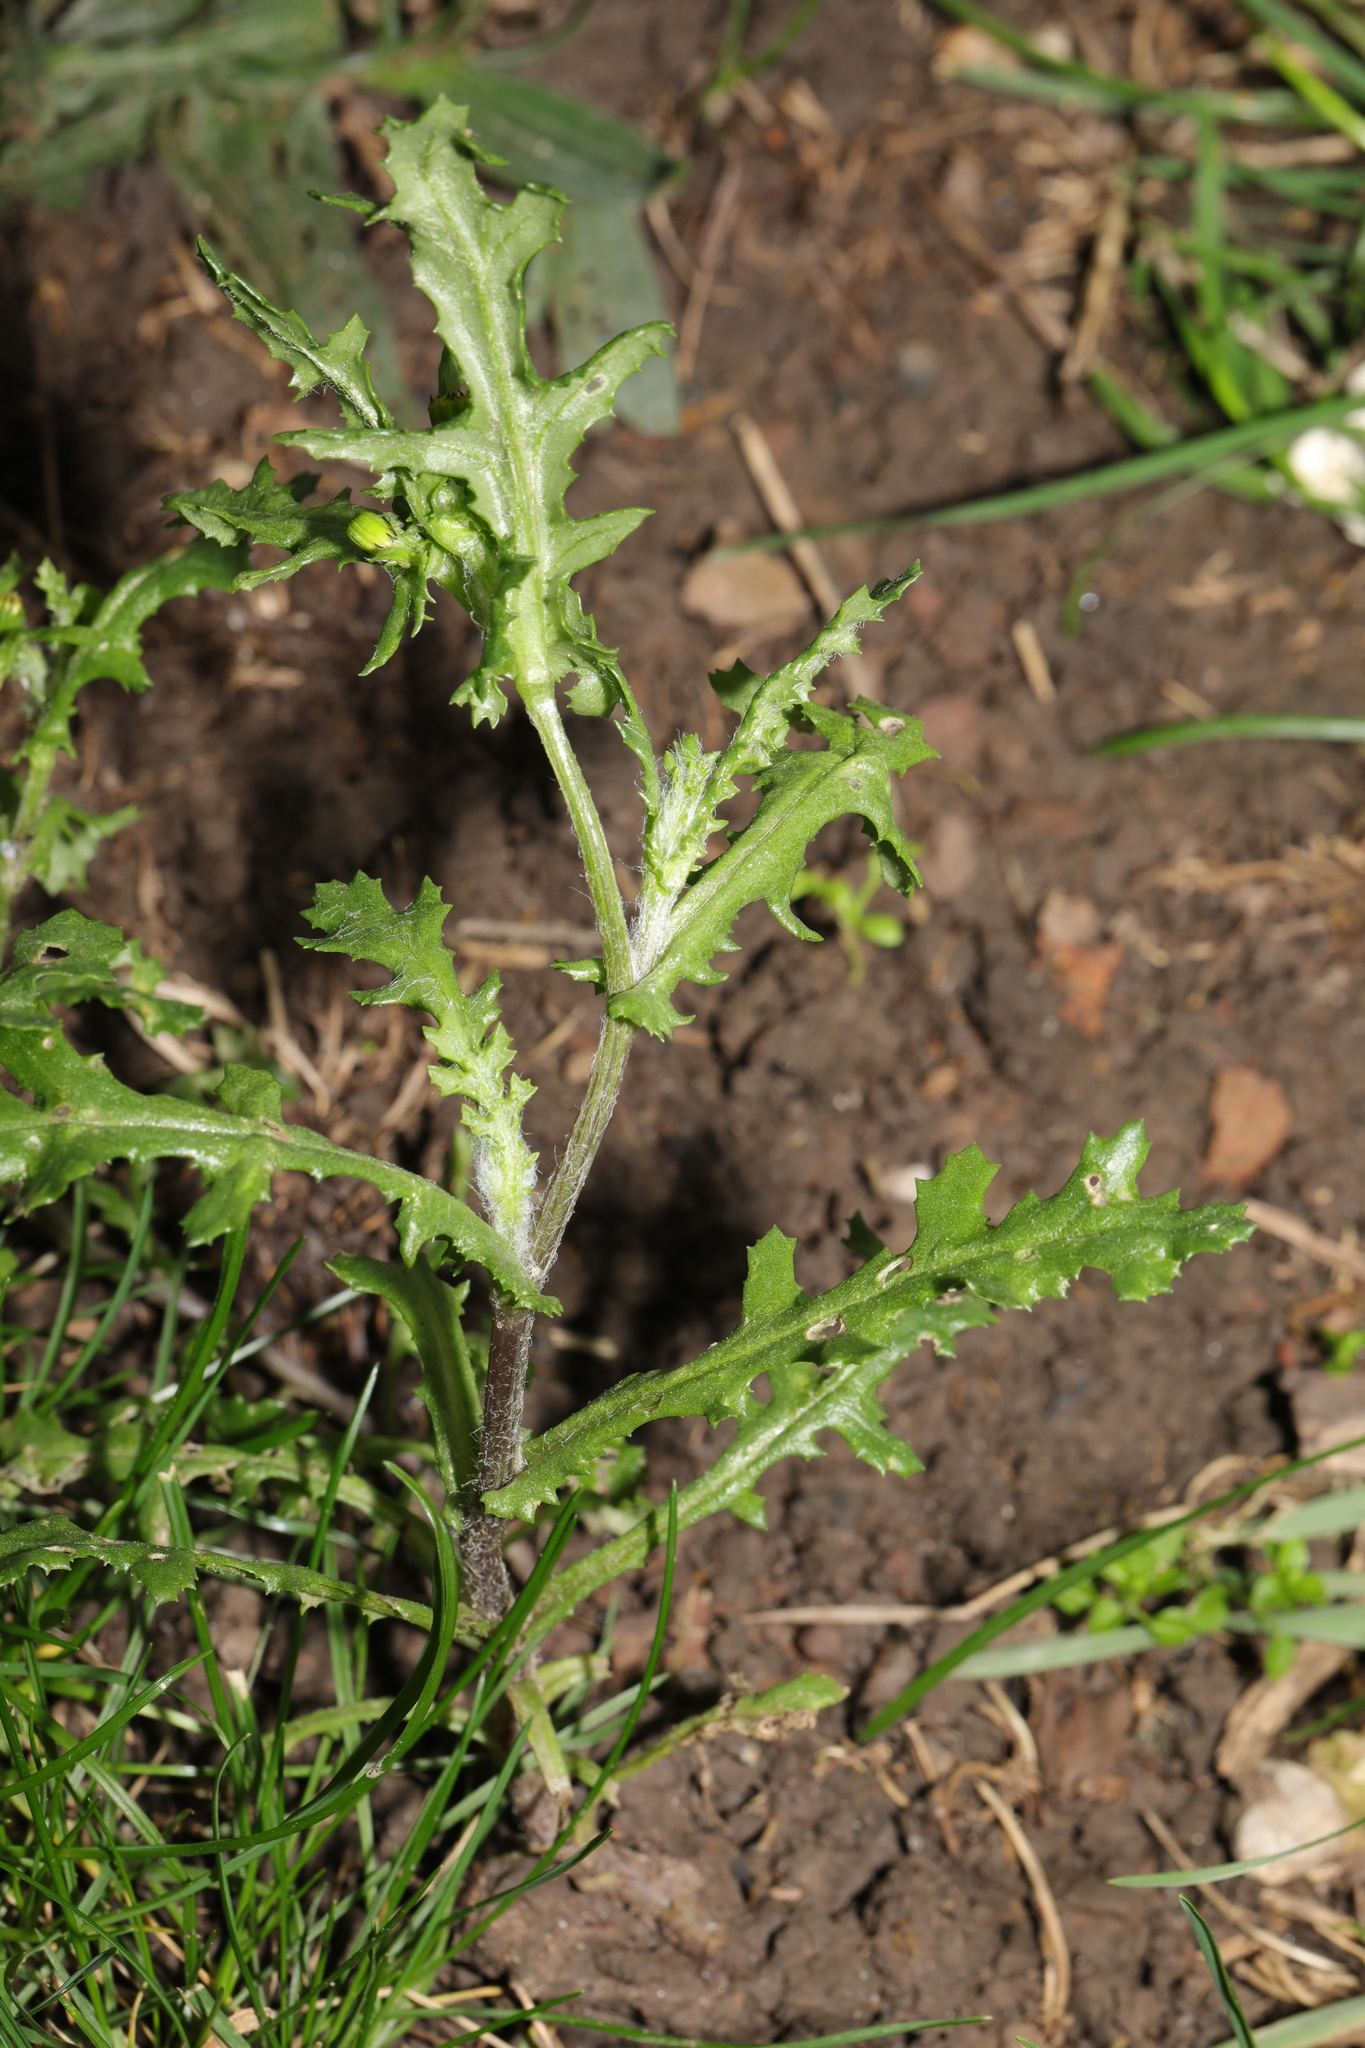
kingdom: Plantae
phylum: Tracheophyta
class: Magnoliopsida
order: Asterales
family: Asteraceae
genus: Senecio
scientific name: Senecio vulgaris
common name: Old-man-in-the-spring
